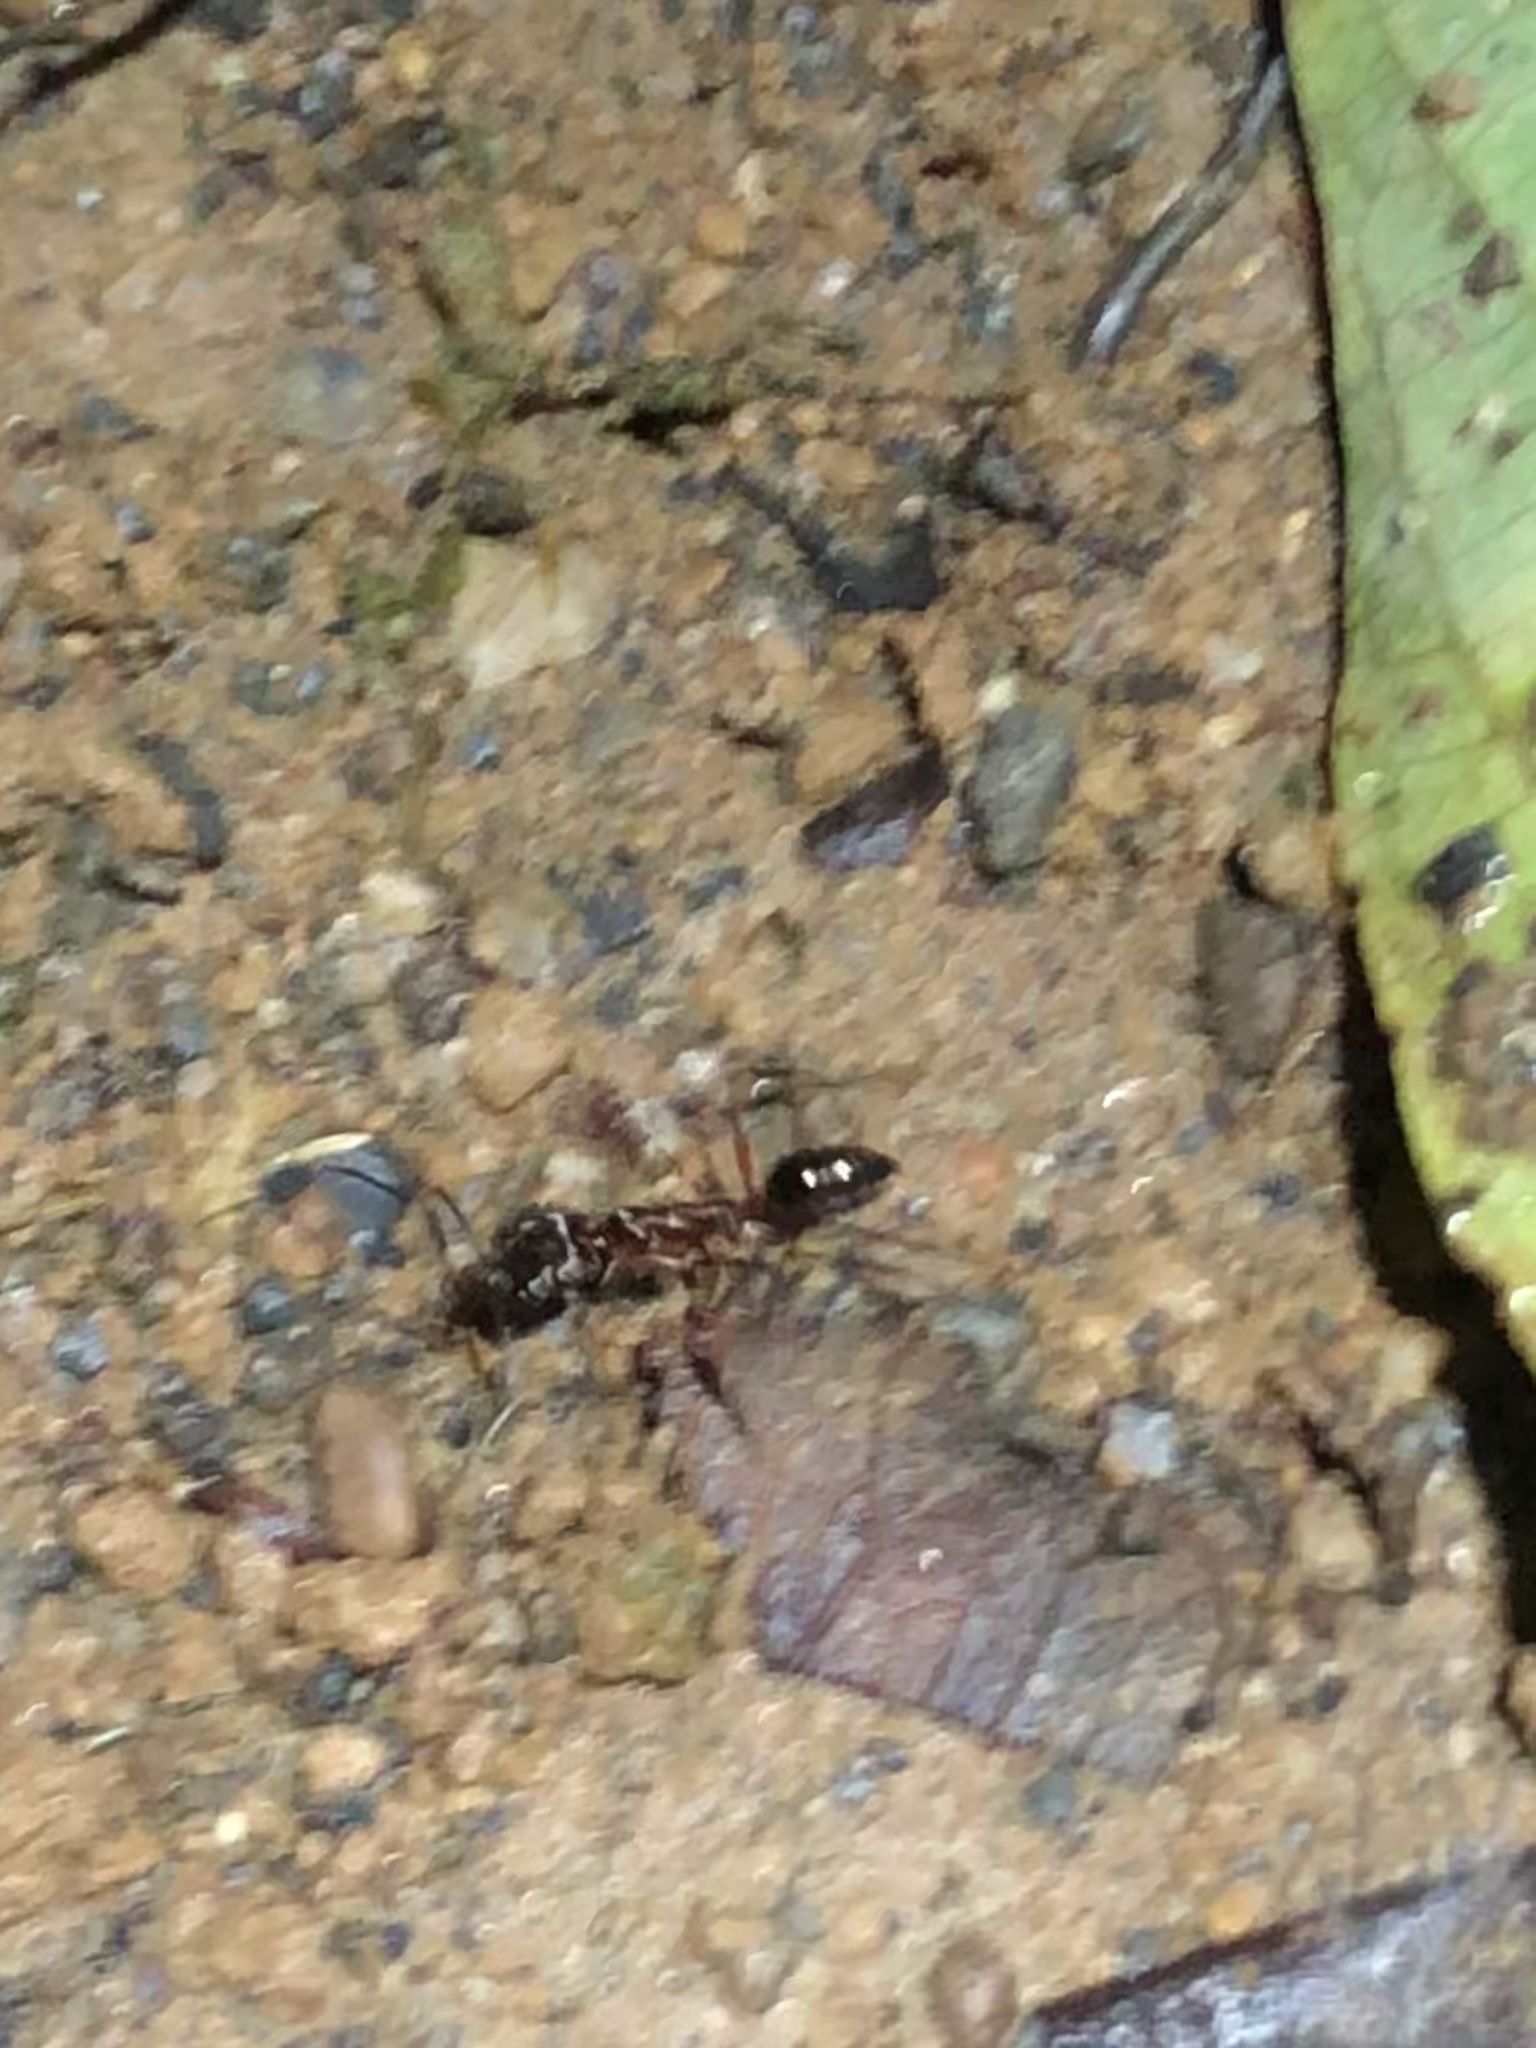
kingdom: Animalia
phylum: Arthropoda
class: Insecta
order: Hymenoptera
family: Formicidae
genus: Odontomachus
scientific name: Odontomachus bauri
